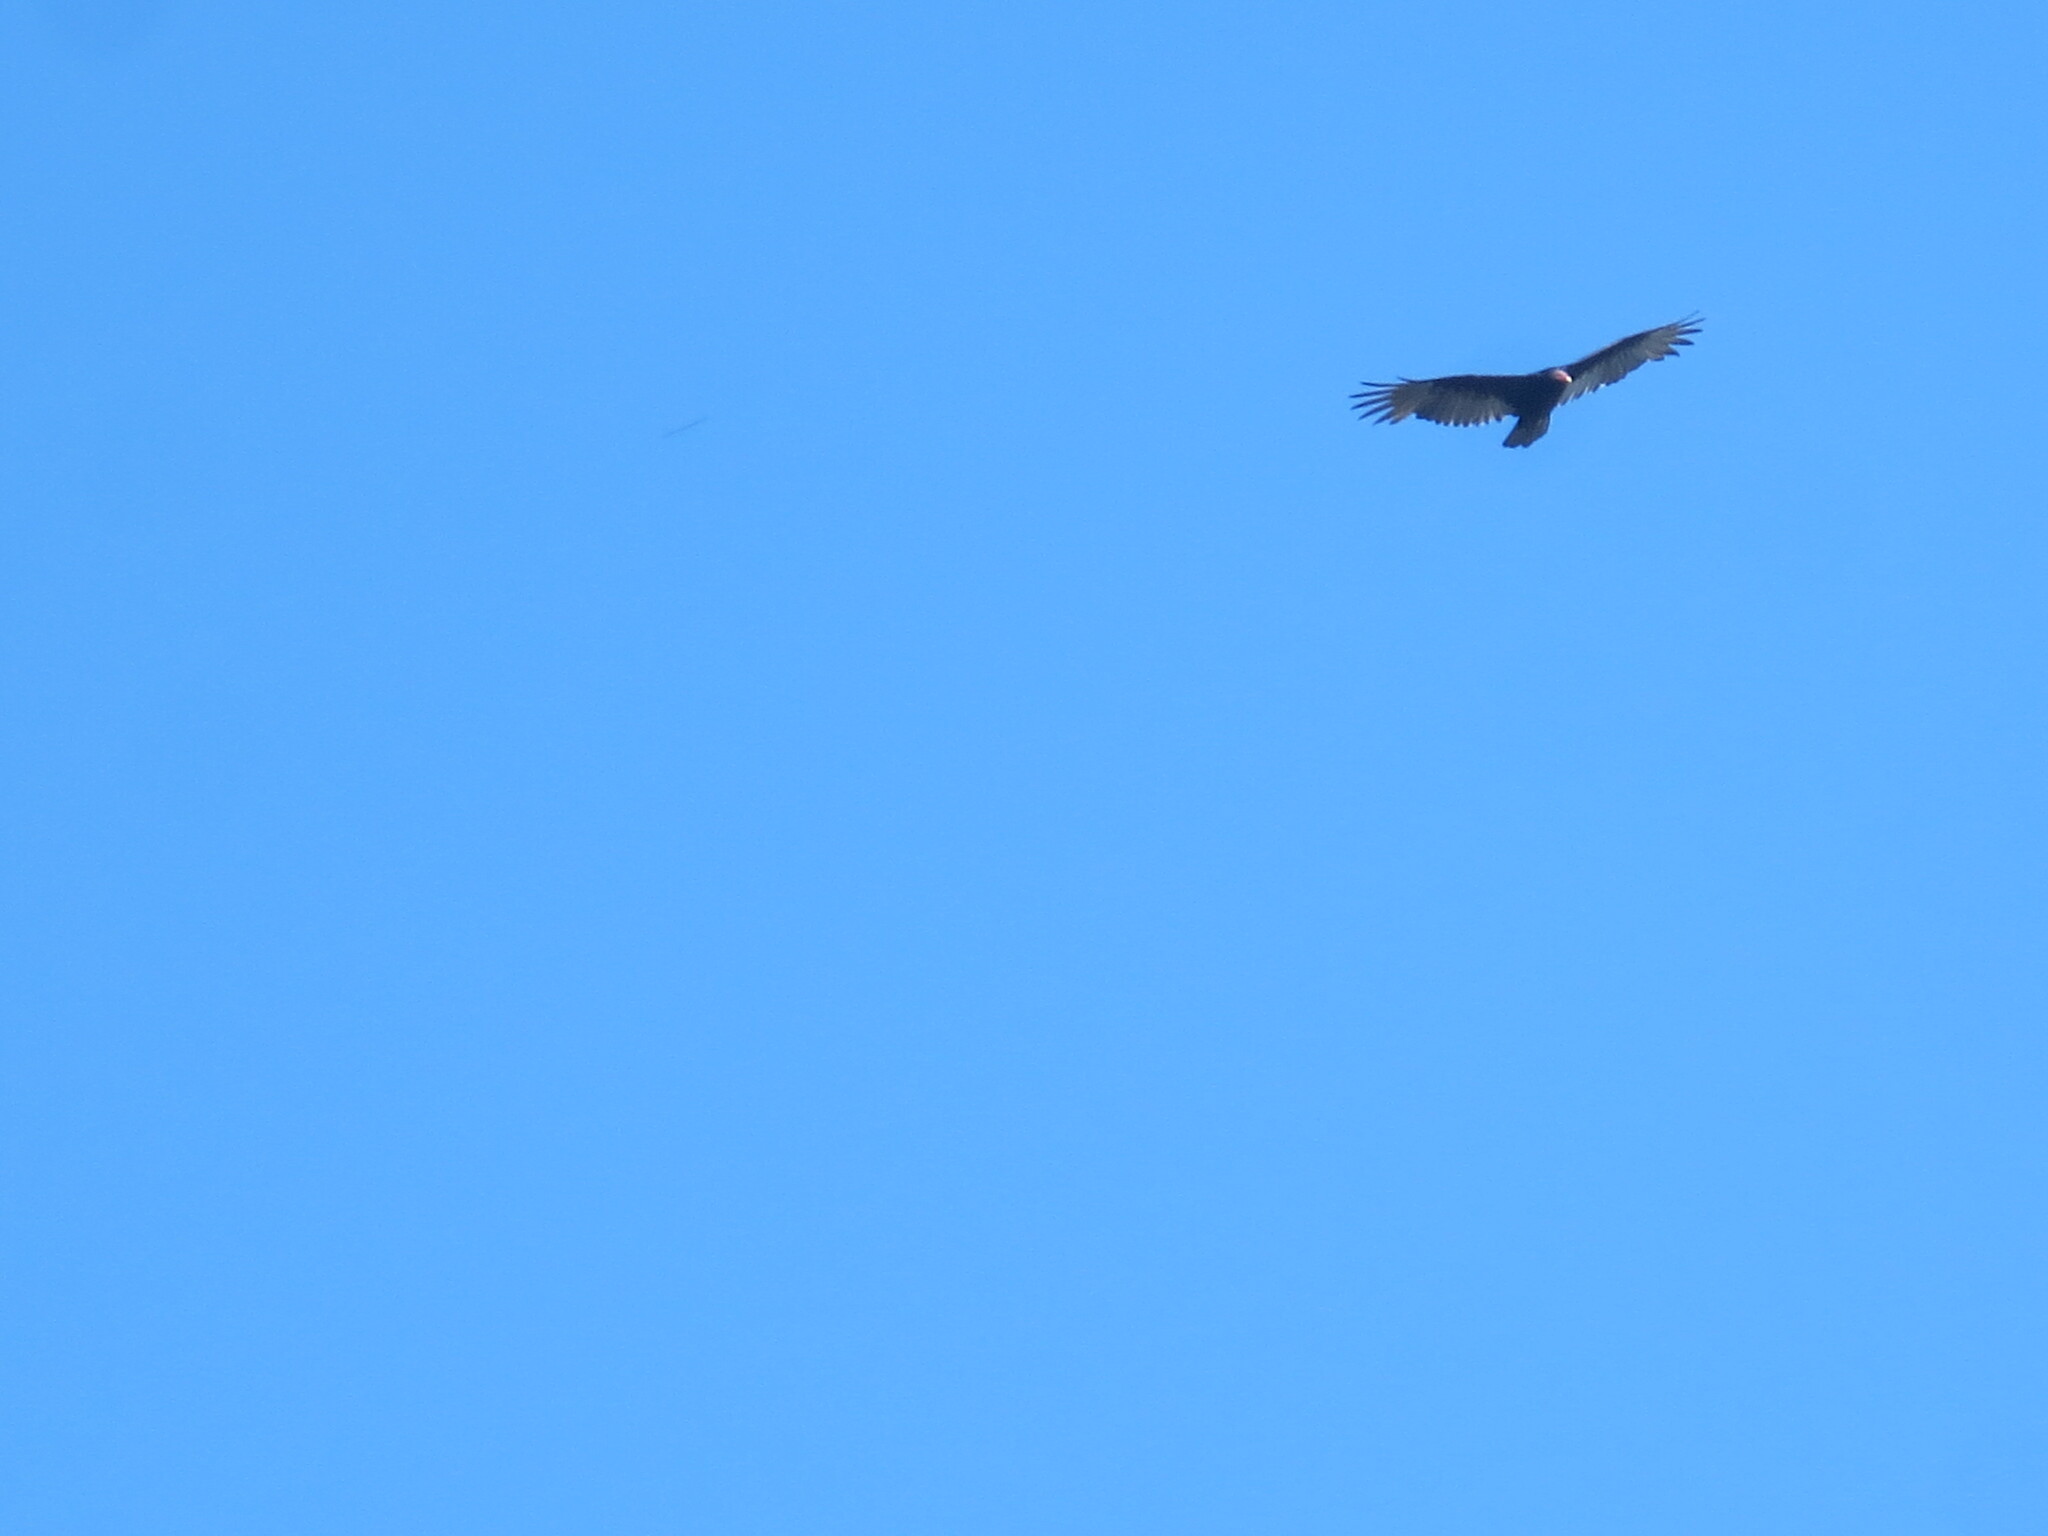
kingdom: Animalia
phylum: Chordata
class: Aves
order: Accipitriformes
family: Cathartidae
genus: Cathartes
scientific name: Cathartes aura
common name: Turkey vulture
